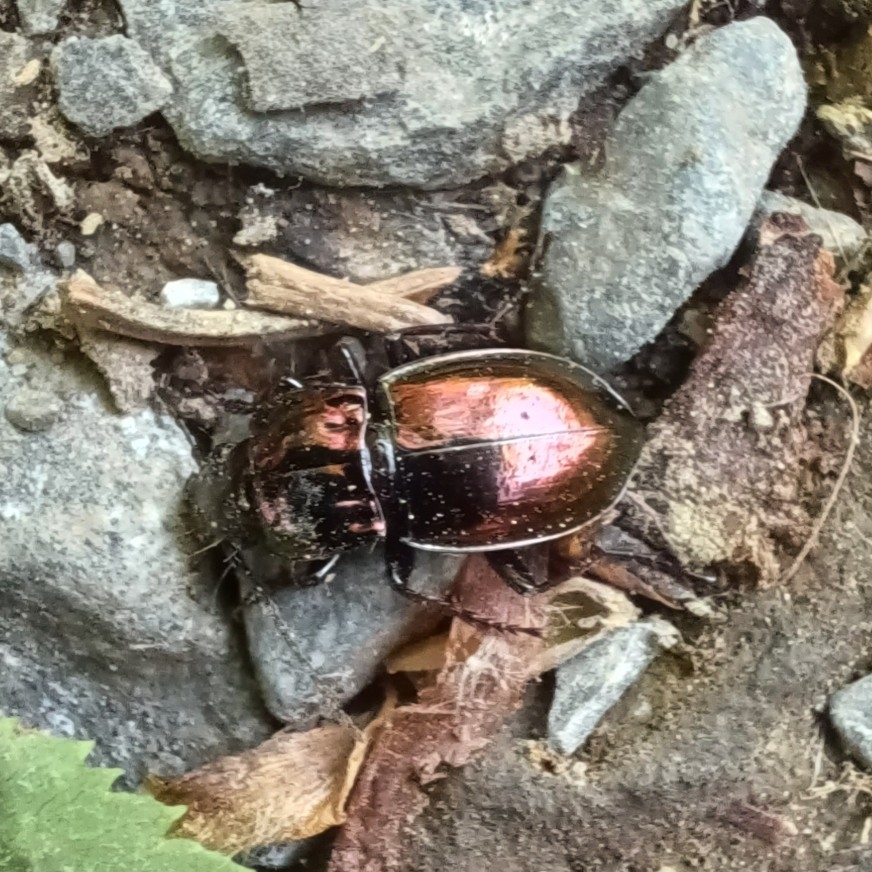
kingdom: Animalia
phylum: Arthropoda
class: Insecta
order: Coleoptera
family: Carabidae
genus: Pterostichus
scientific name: Pterostichus burmeisteri
